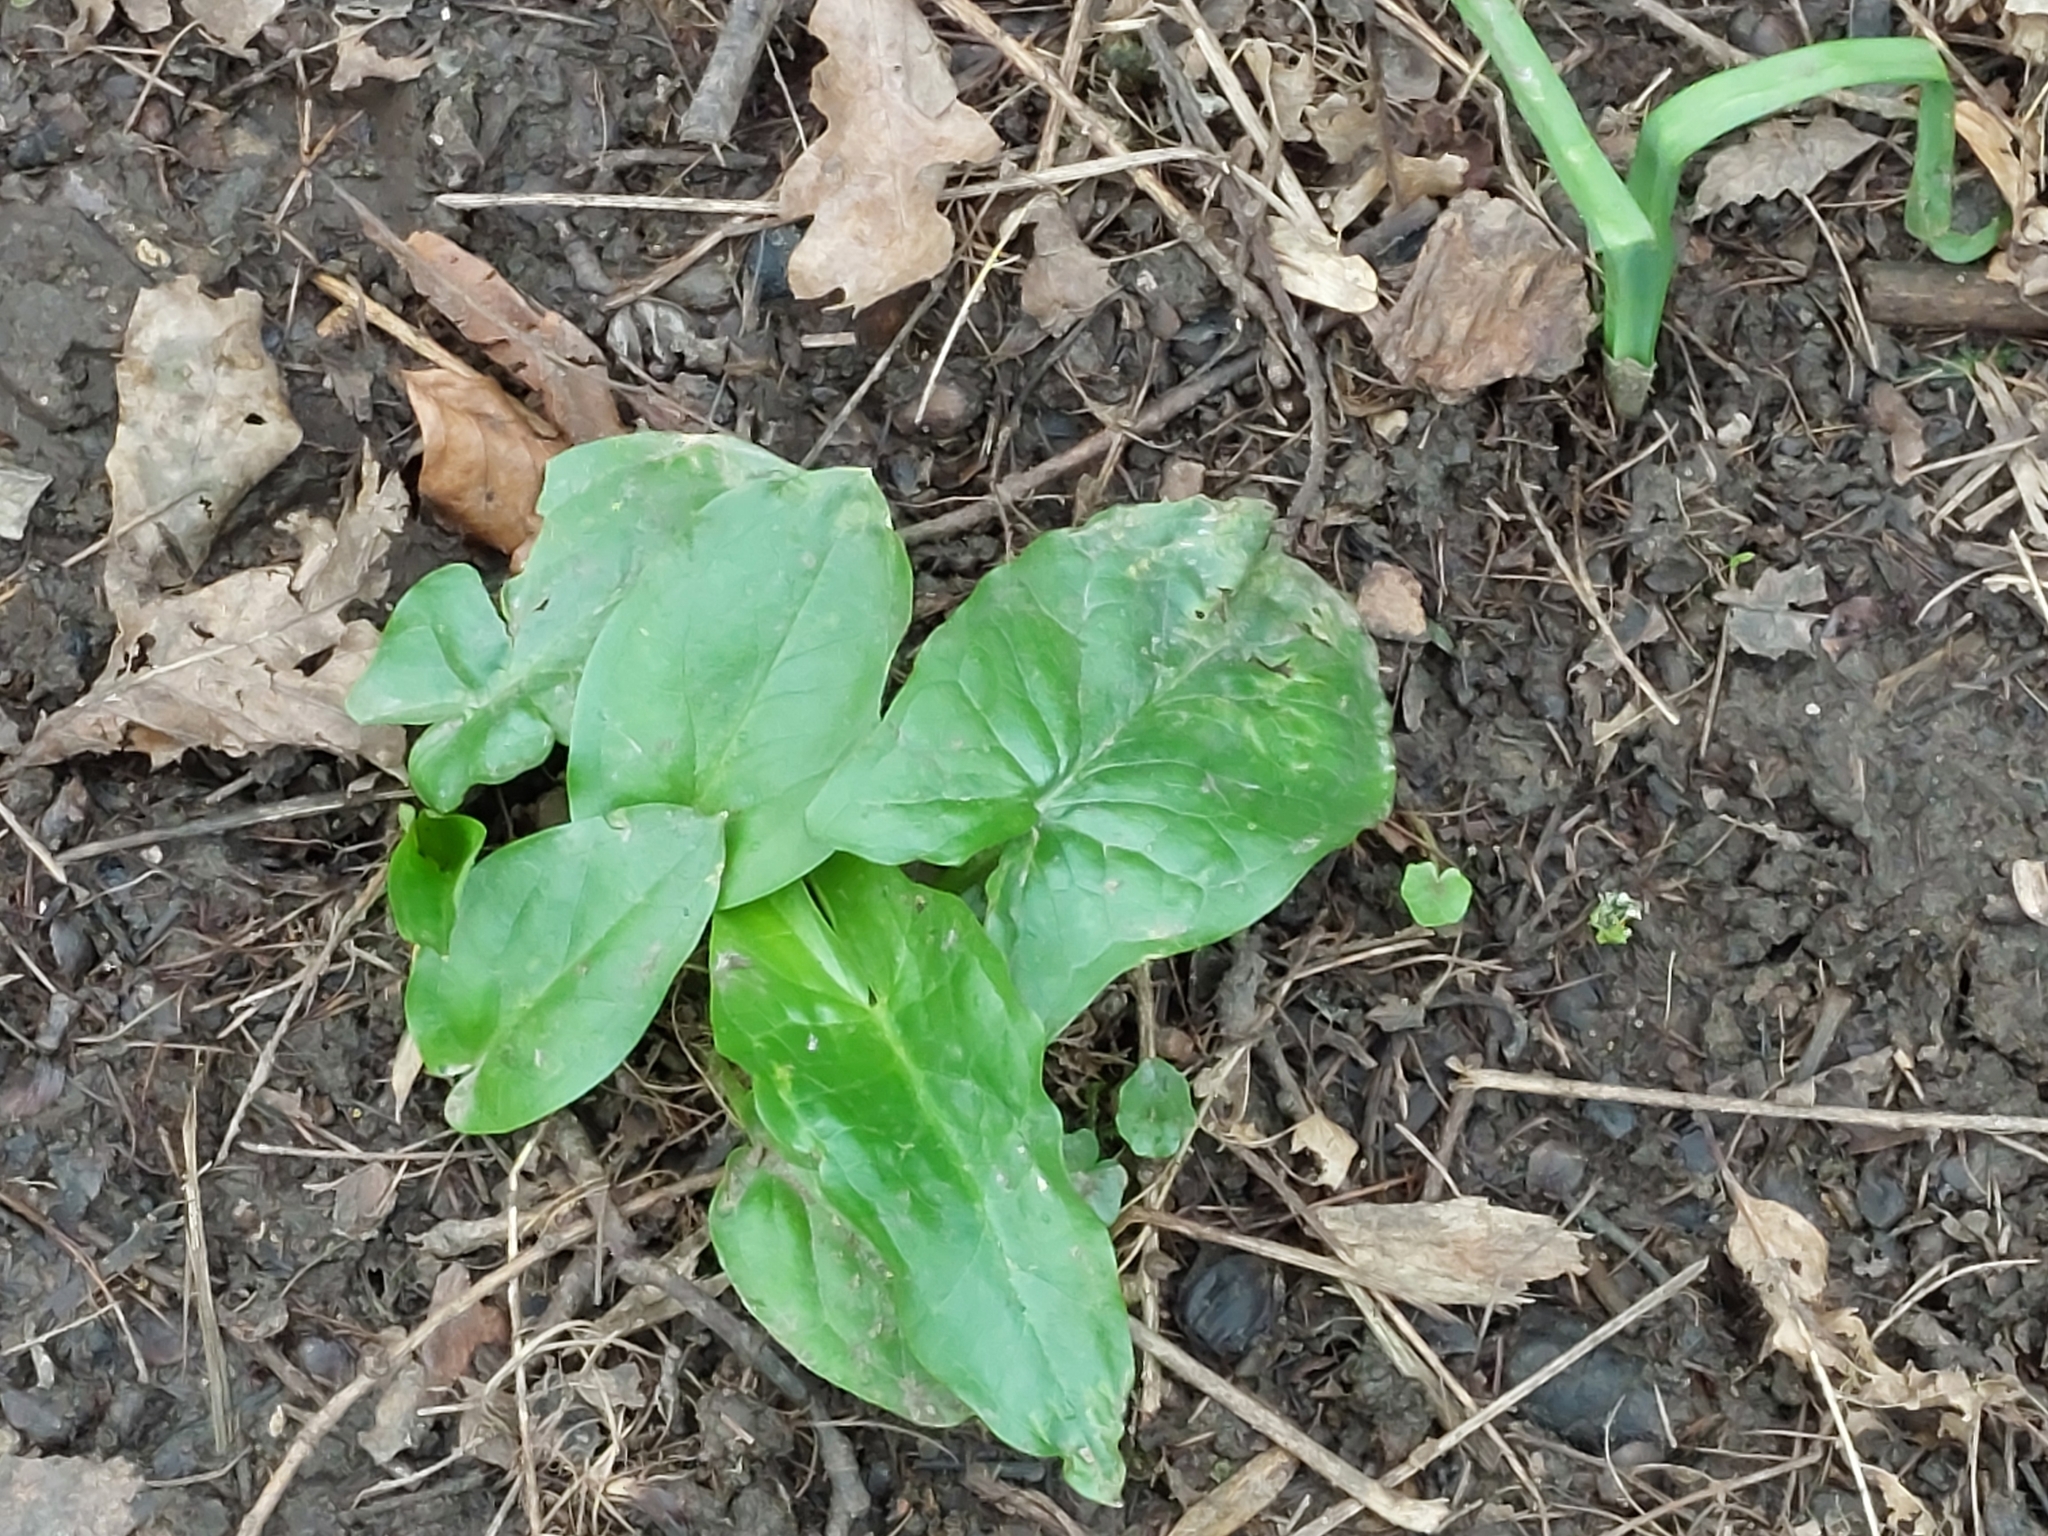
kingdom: Plantae
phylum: Tracheophyta
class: Liliopsida
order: Alismatales
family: Araceae
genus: Arum
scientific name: Arum maculatum
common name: Lords-and-ladies
